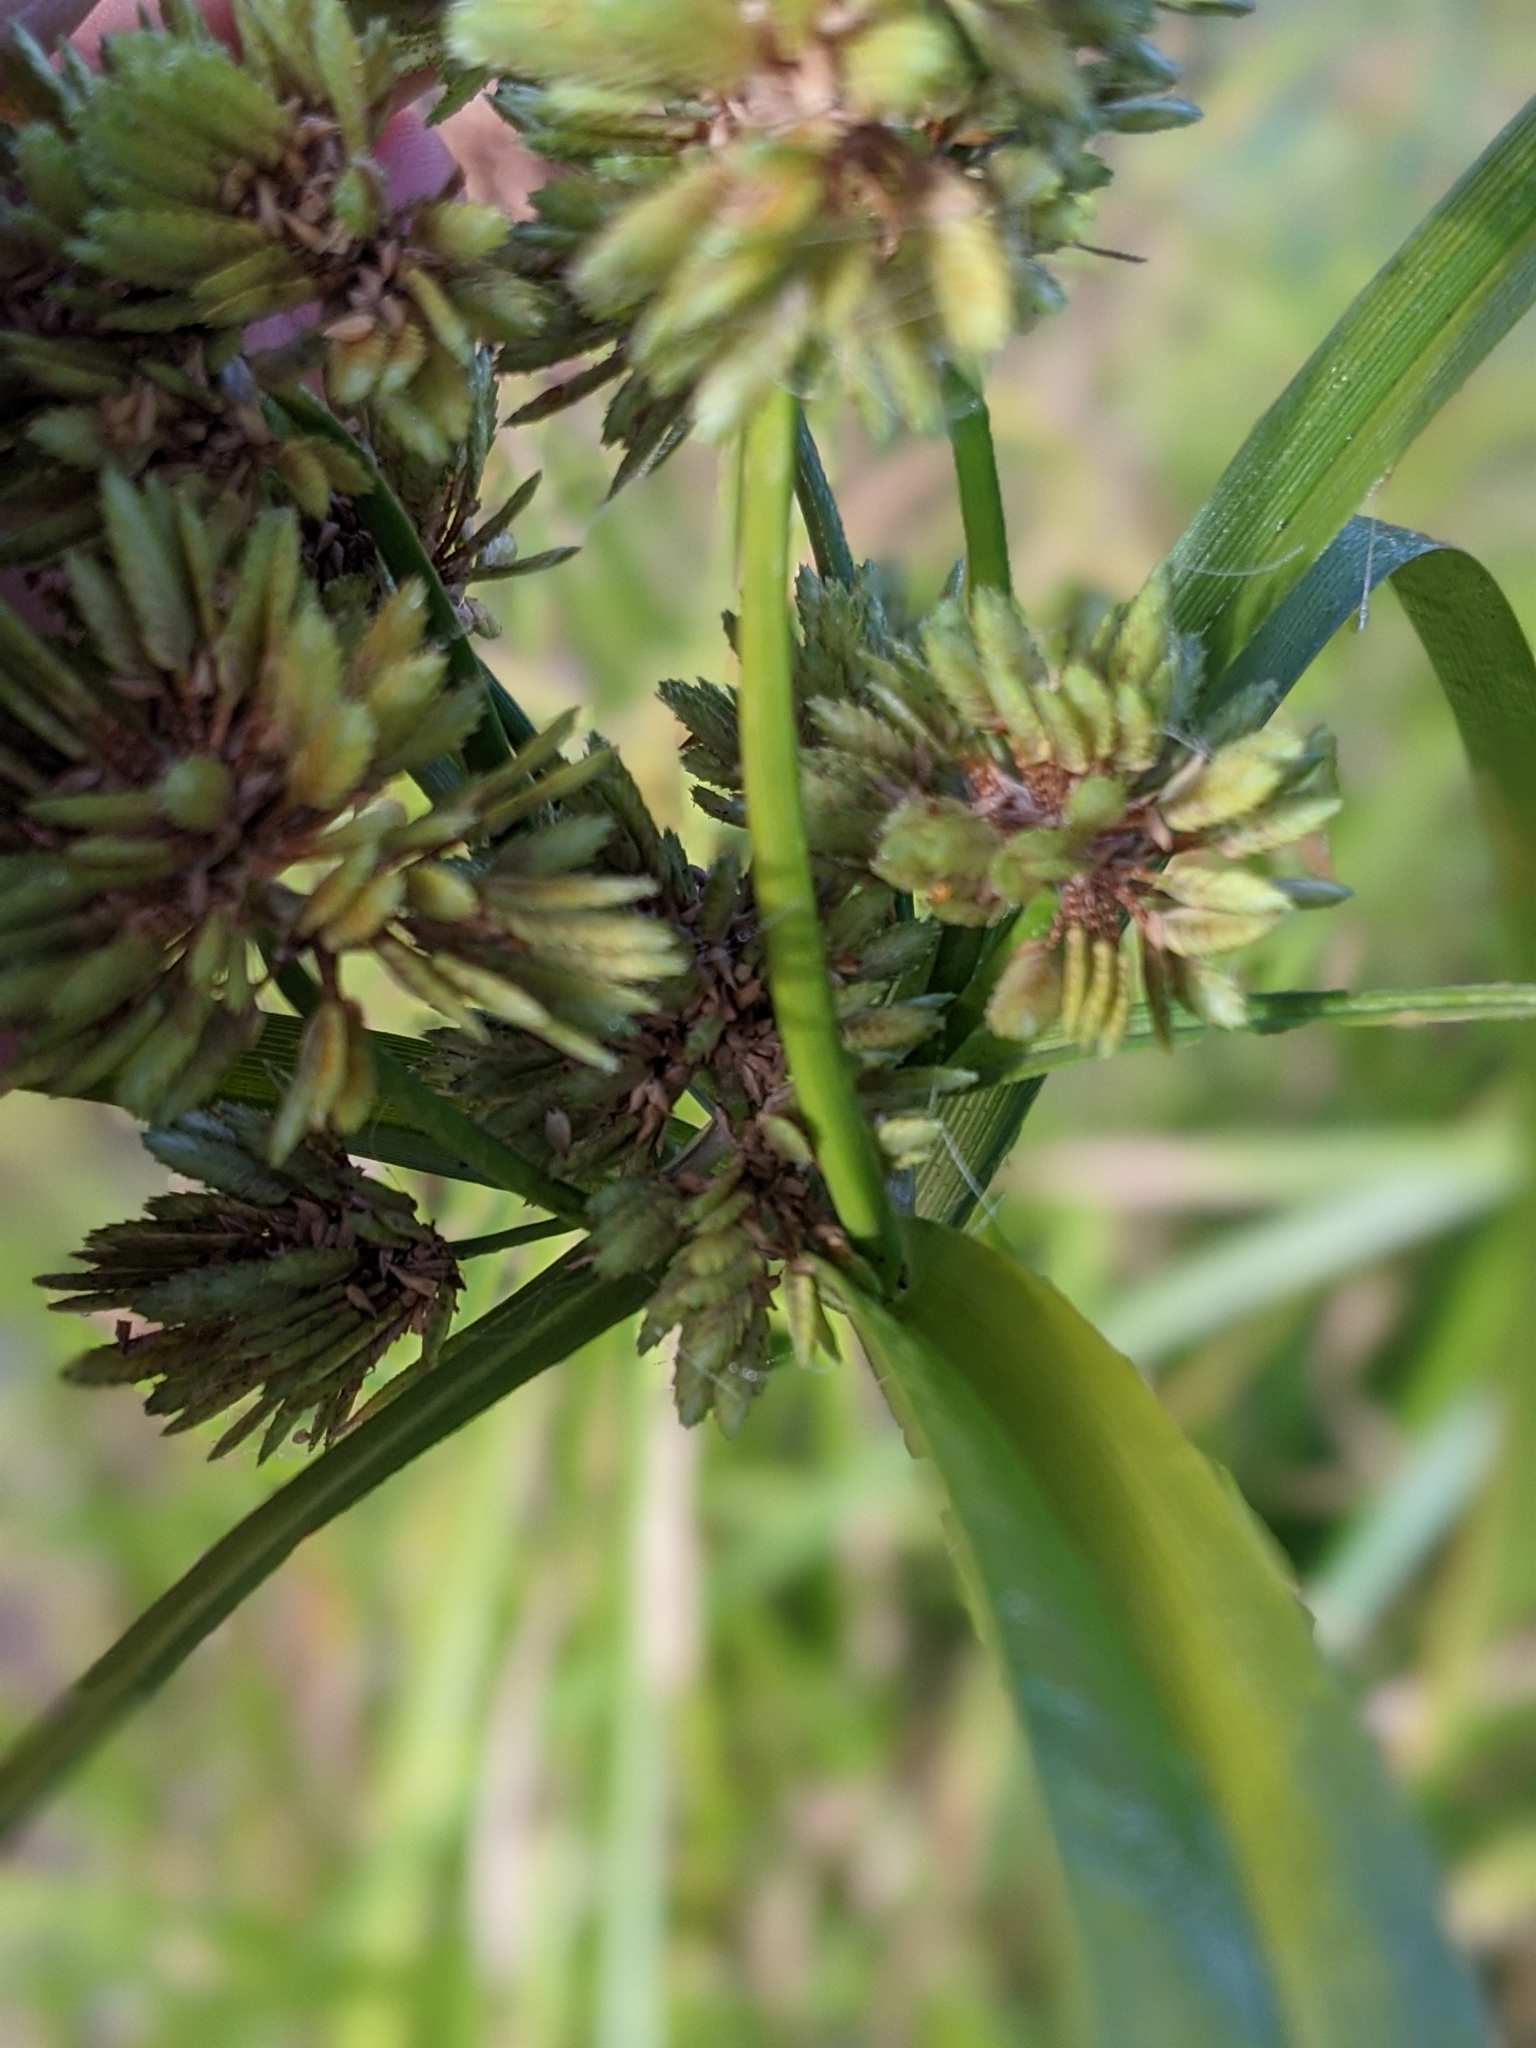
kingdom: Plantae
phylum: Tracheophyta
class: Liliopsida
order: Poales
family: Cyperaceae
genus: Cyperus
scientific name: Cyperus eragrostis
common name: Tall flatsedge
